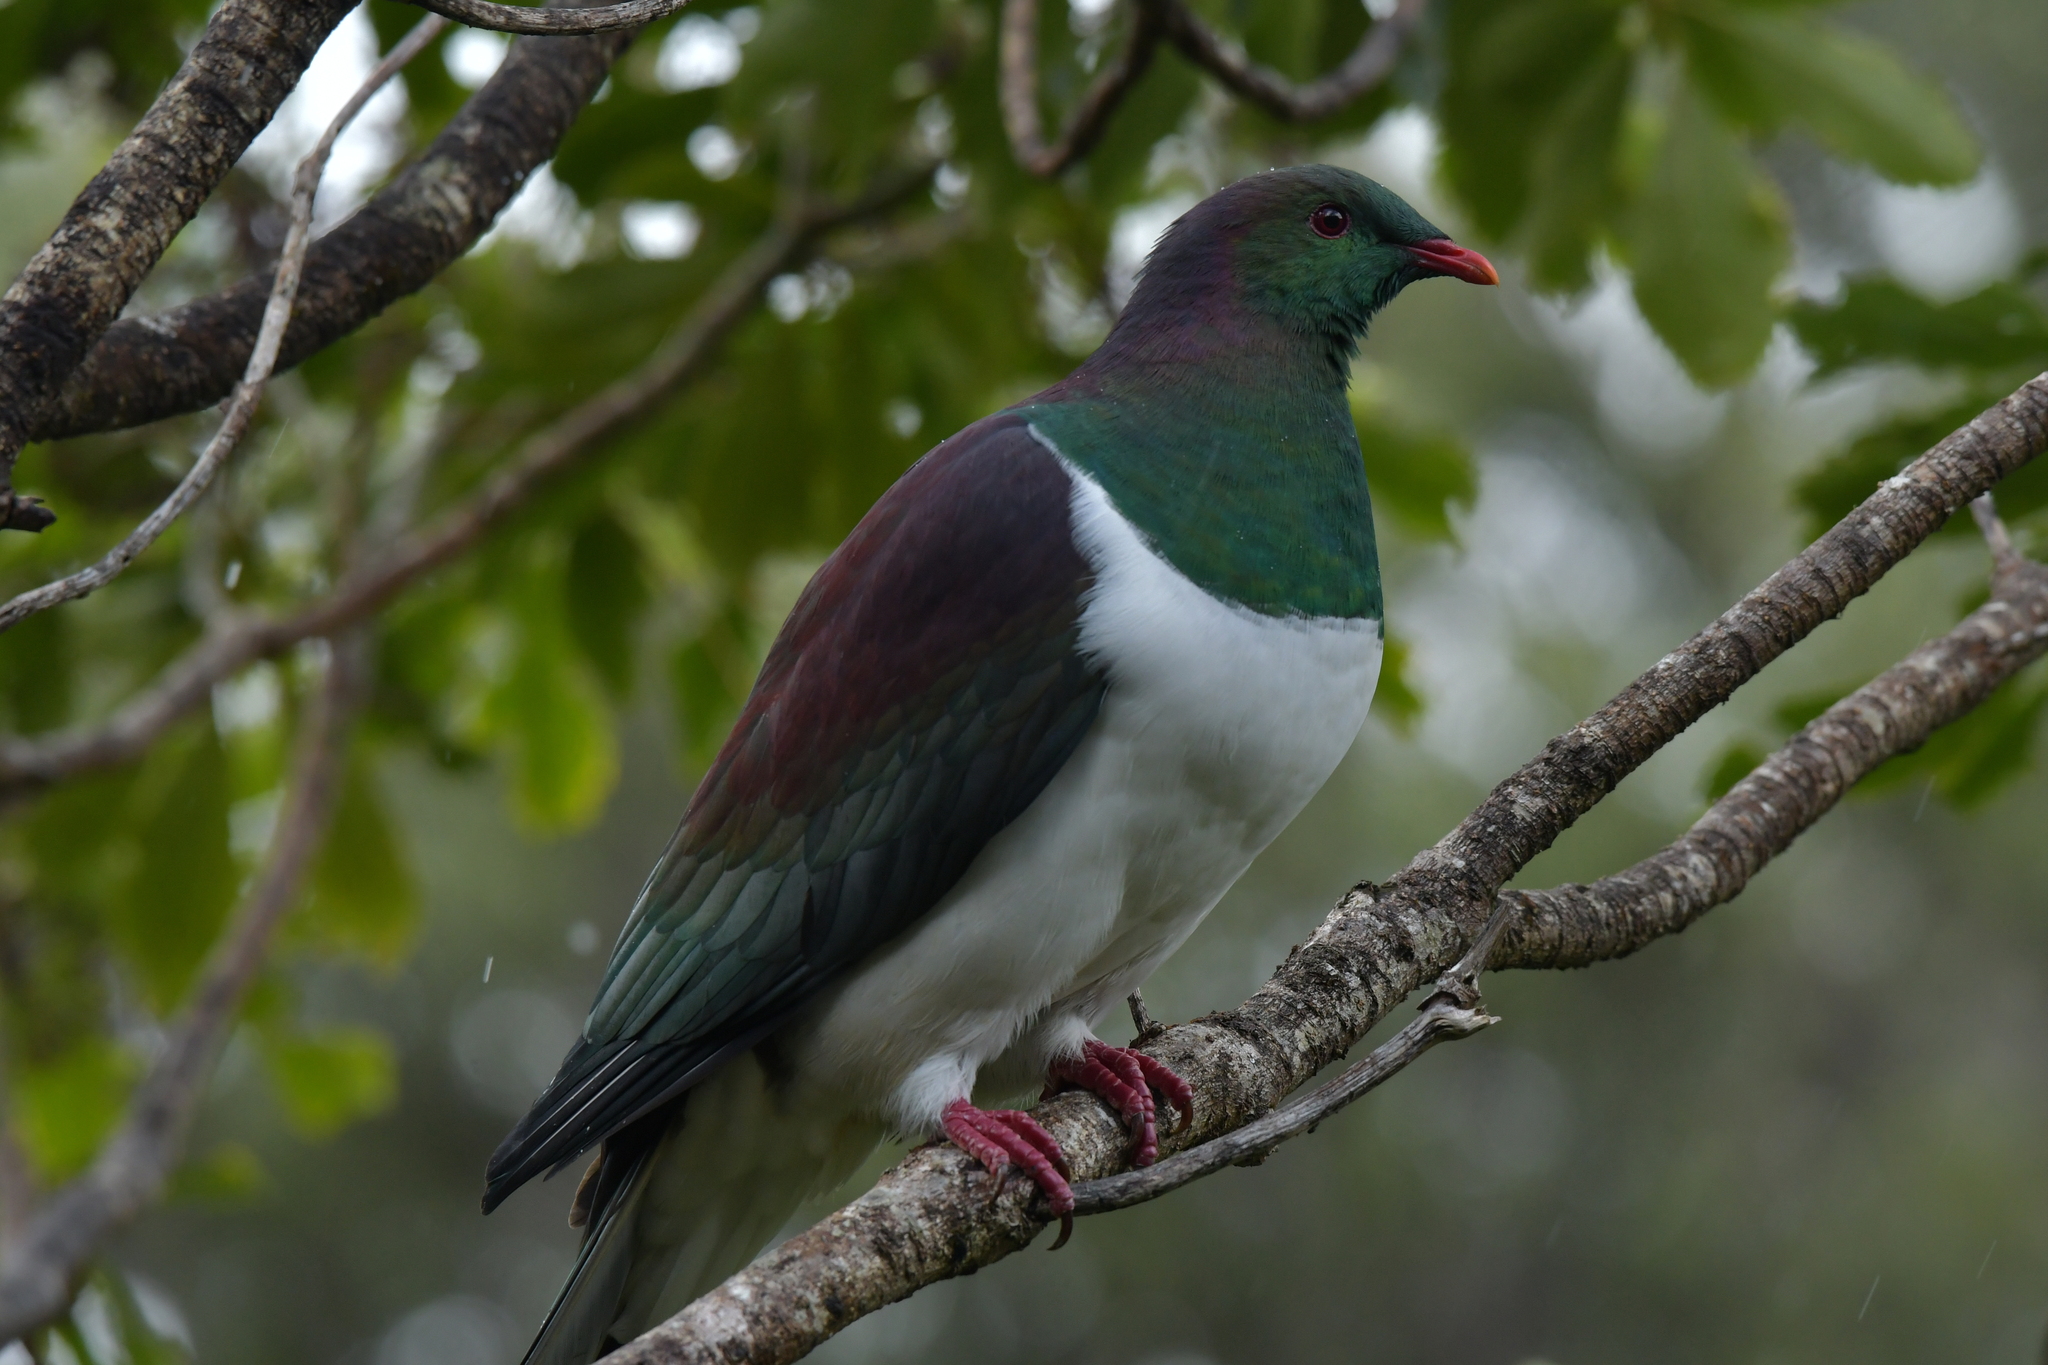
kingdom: Animalia
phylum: Chordata
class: Aves
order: Columbiformes
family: Columbidae
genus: Hemiphaga
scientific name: Hemiphaga novaeseelandiae
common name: New zealand pigeon
